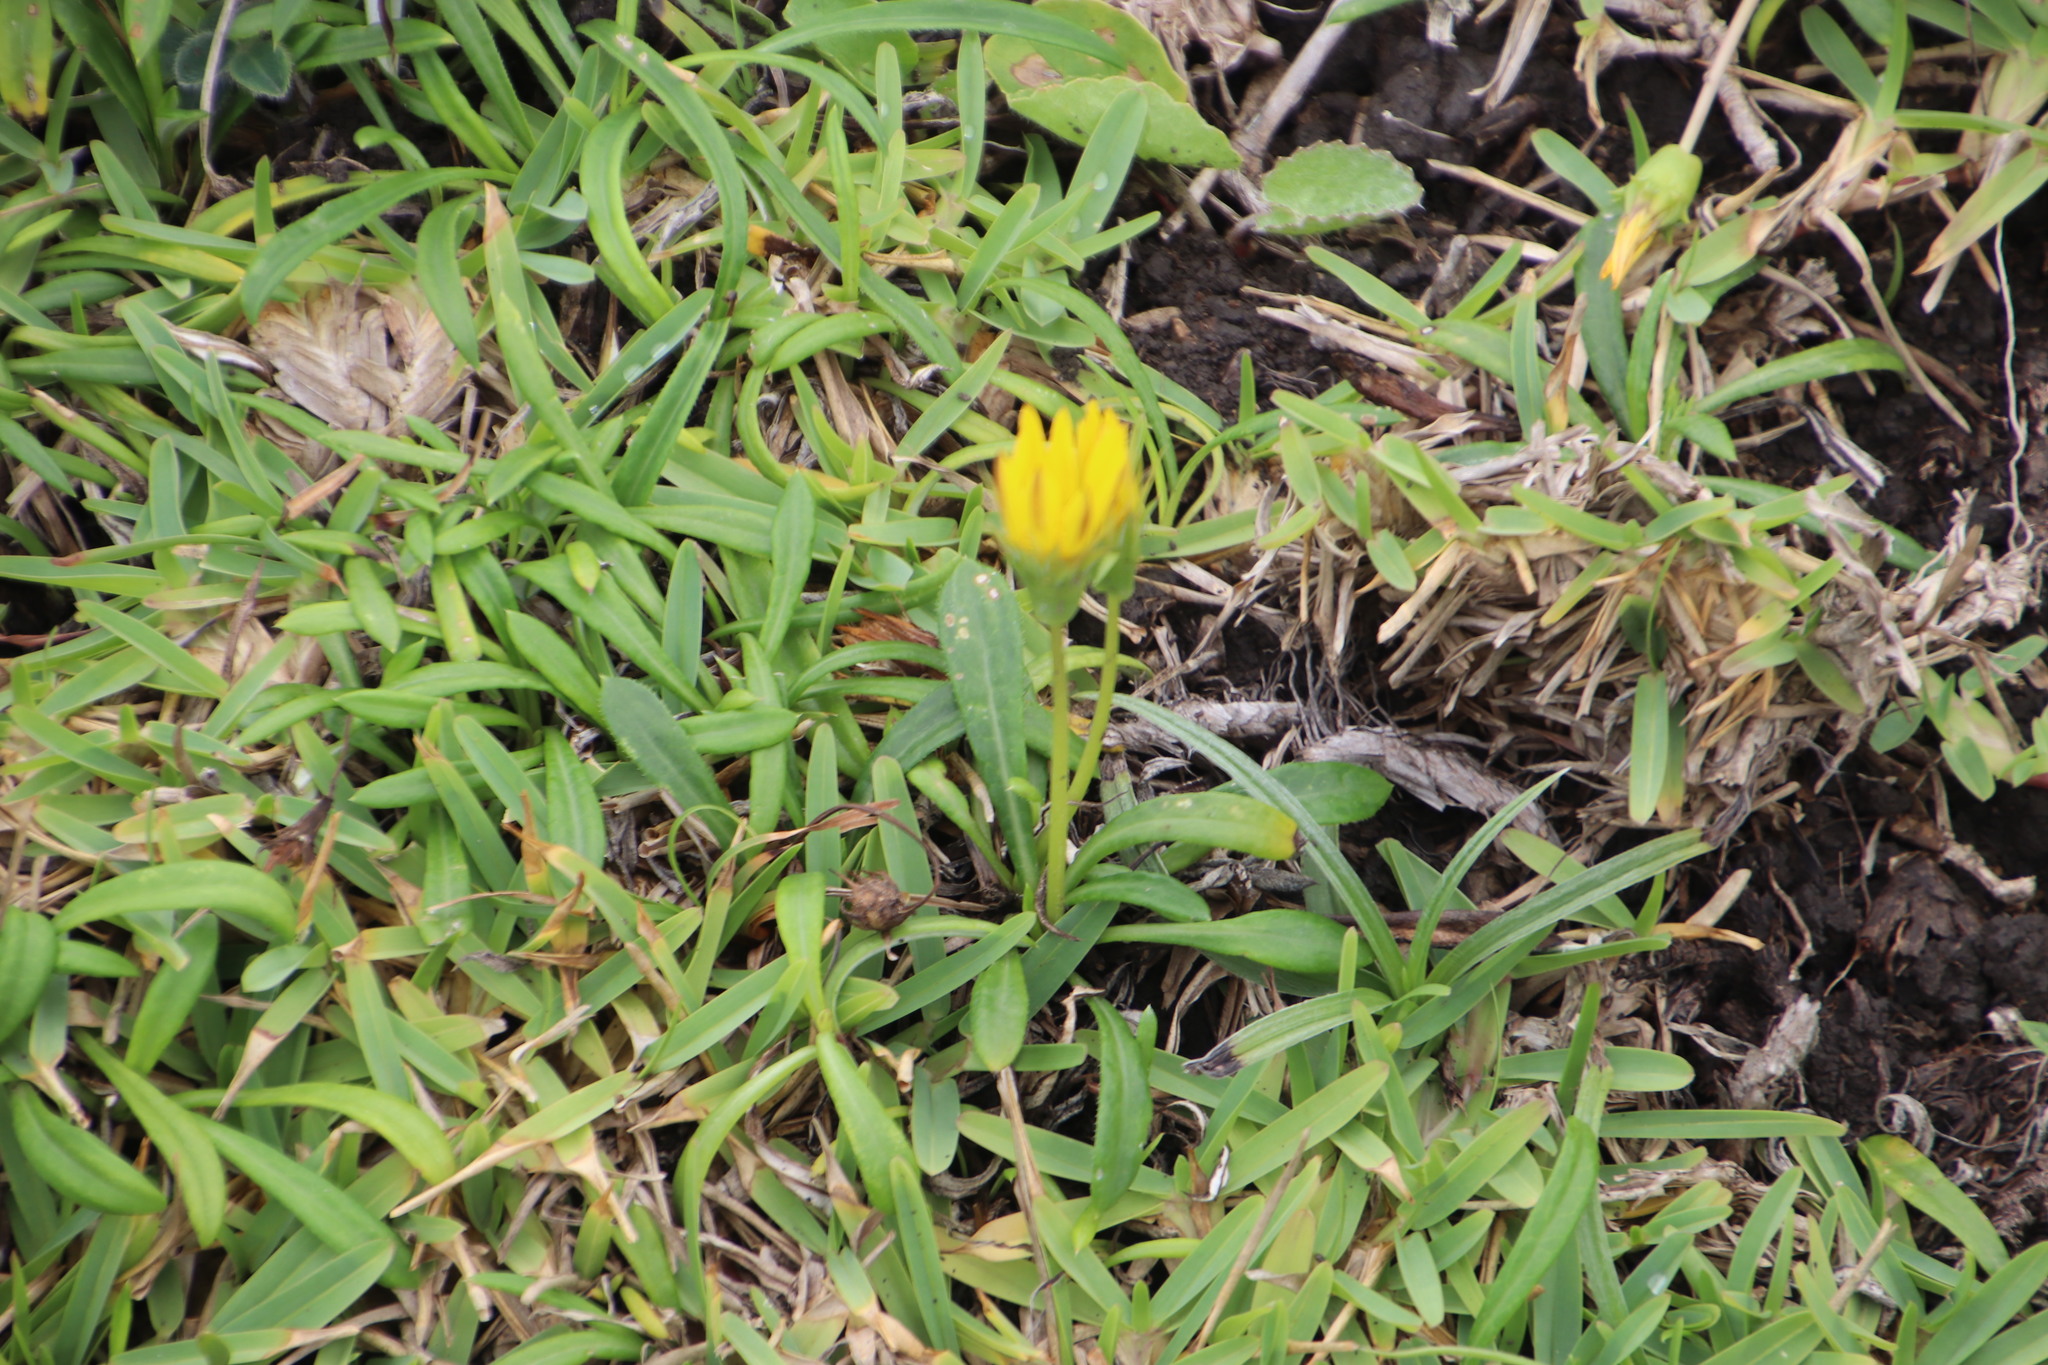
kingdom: Plantae
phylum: Tracheophyta
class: Magnoliopsida
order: Asterales
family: Asteraceae
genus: Gazania
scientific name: Gazania rigens
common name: Treasureflower
